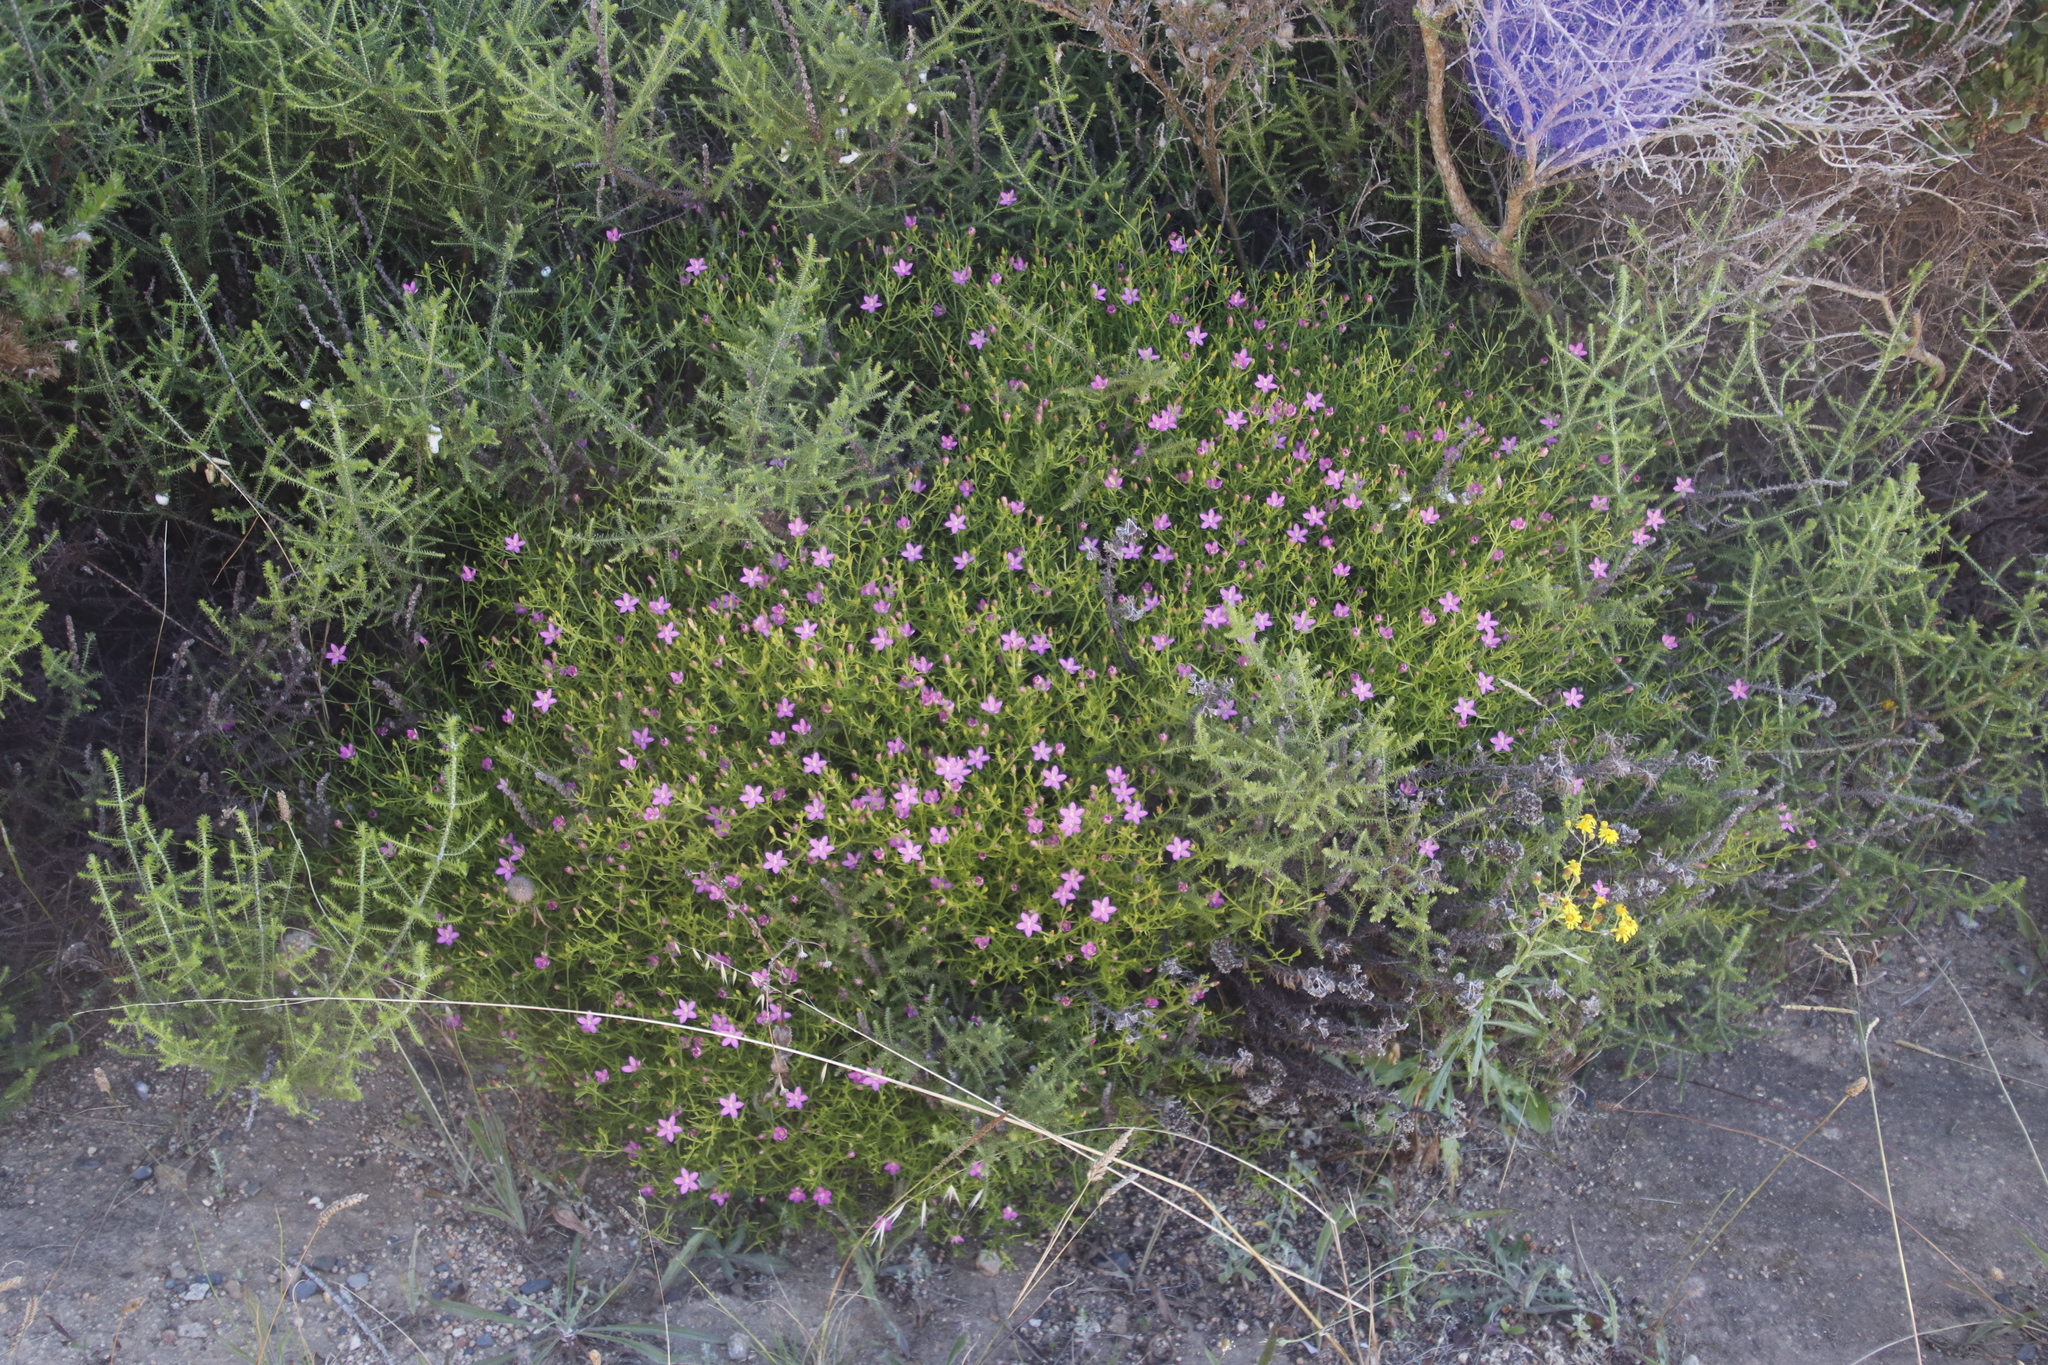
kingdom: Plantae
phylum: Tracheophyta
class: Magnoliopsida
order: Gentianales
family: Gentianaceae
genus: Chironia
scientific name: Chironia baccifera
